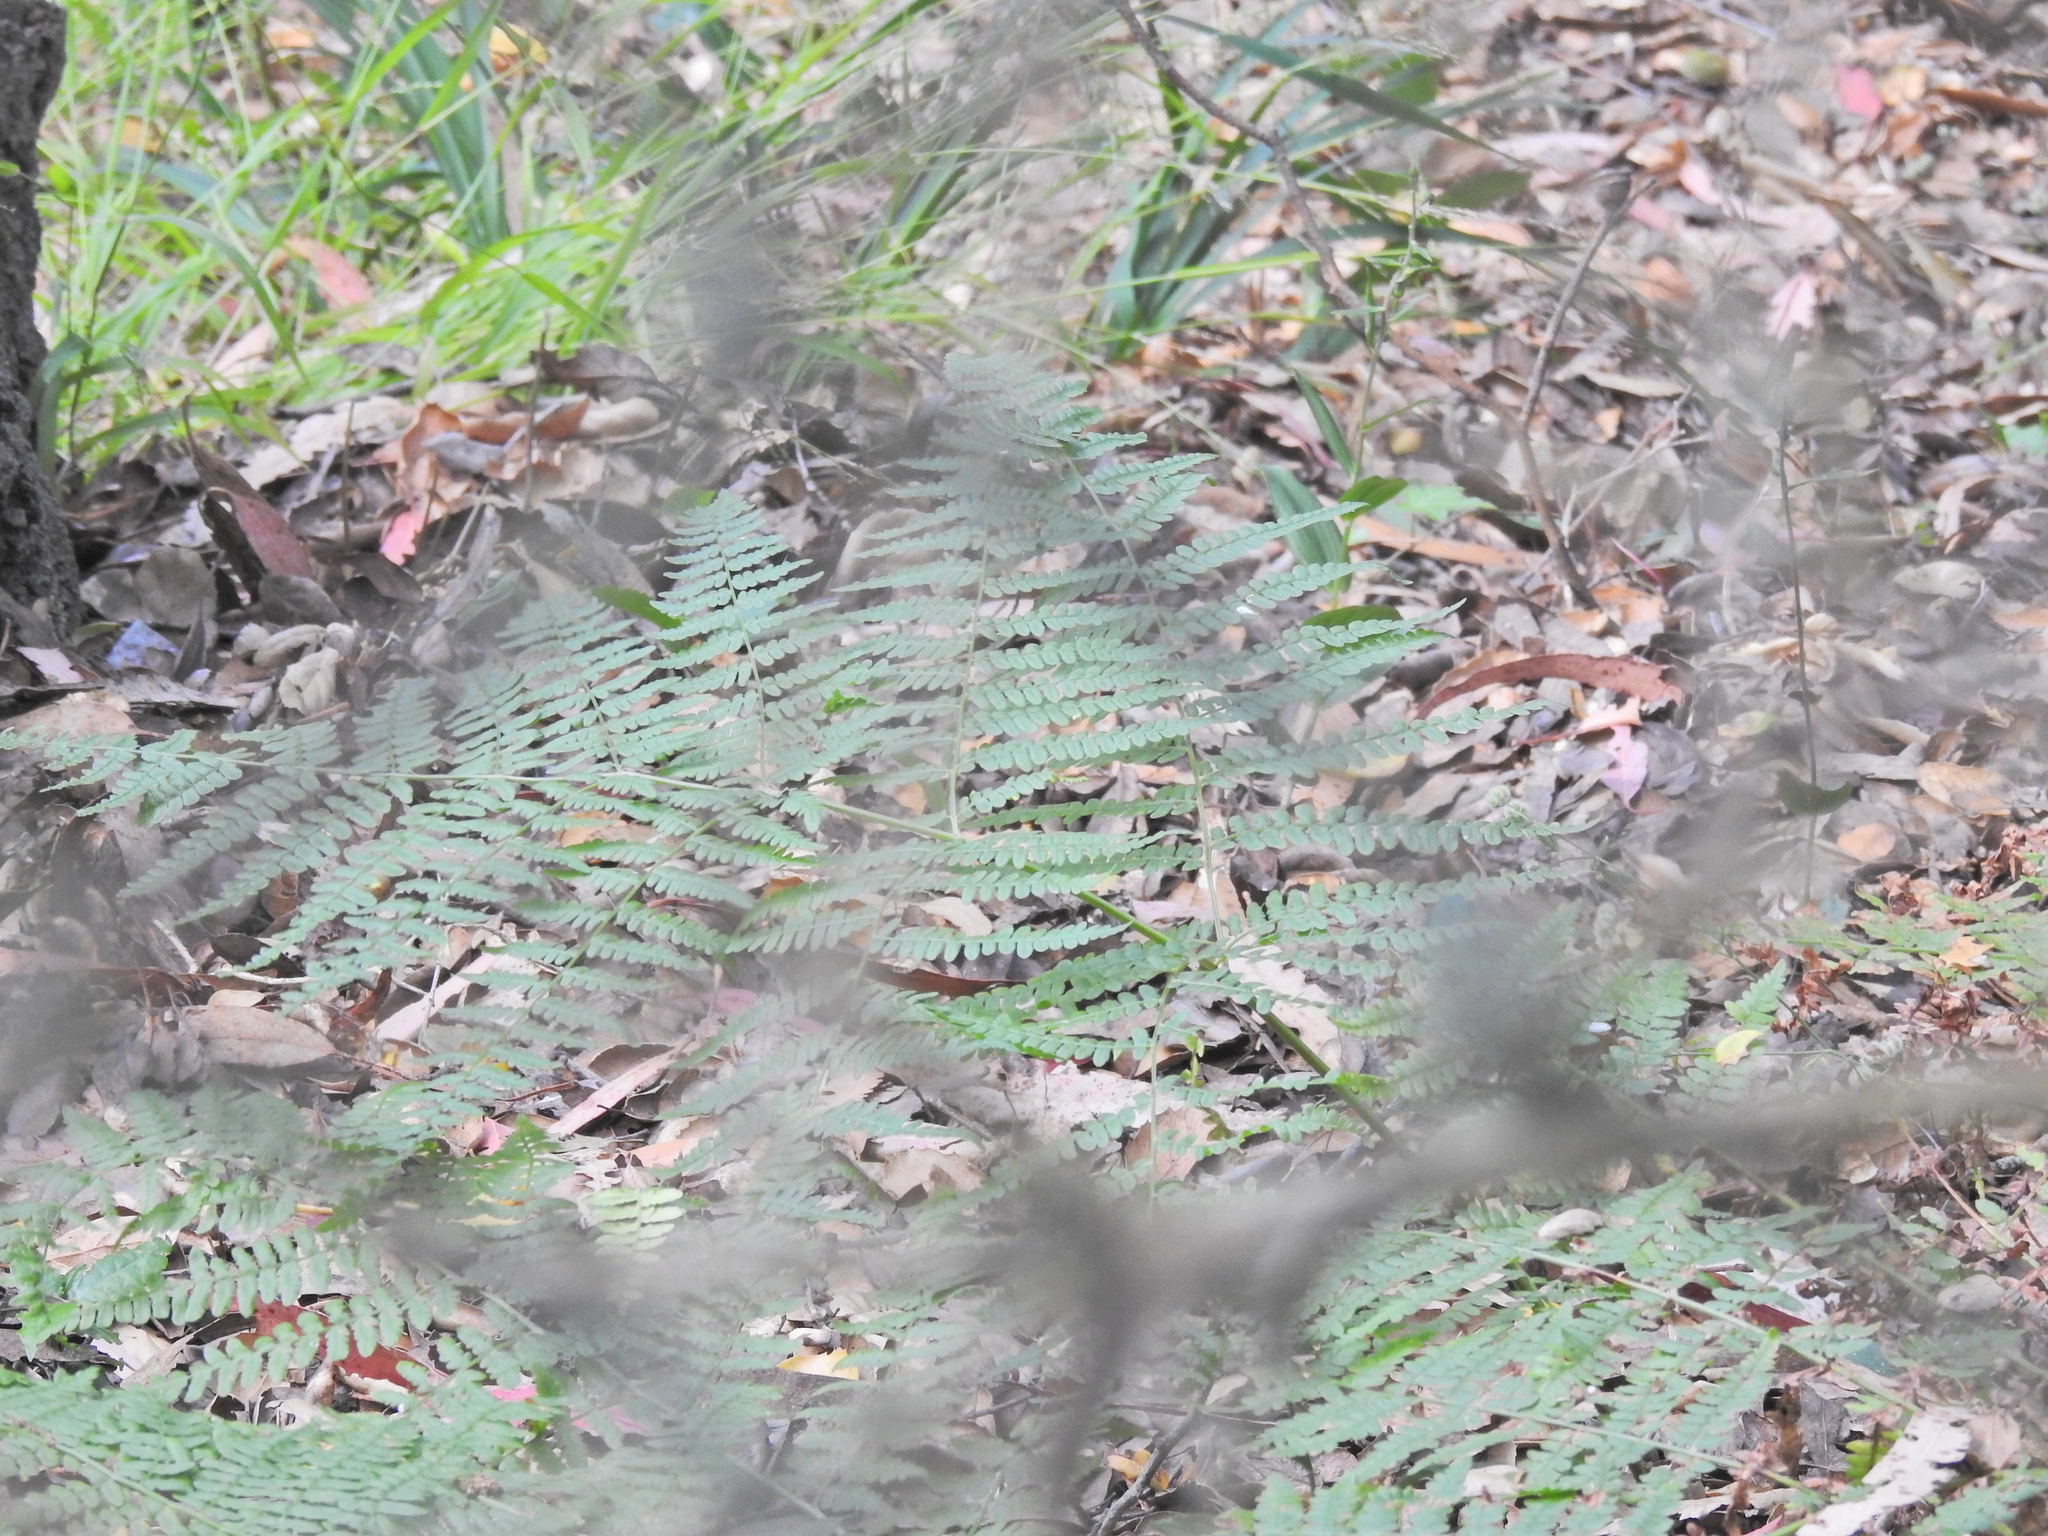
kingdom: Plantae
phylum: Tracheophyta
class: Polypodiopsida
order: Polypodiales
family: Dennstaedtiaceae
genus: Pteridium
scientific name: Pteridium aquilinum
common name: Bracken
